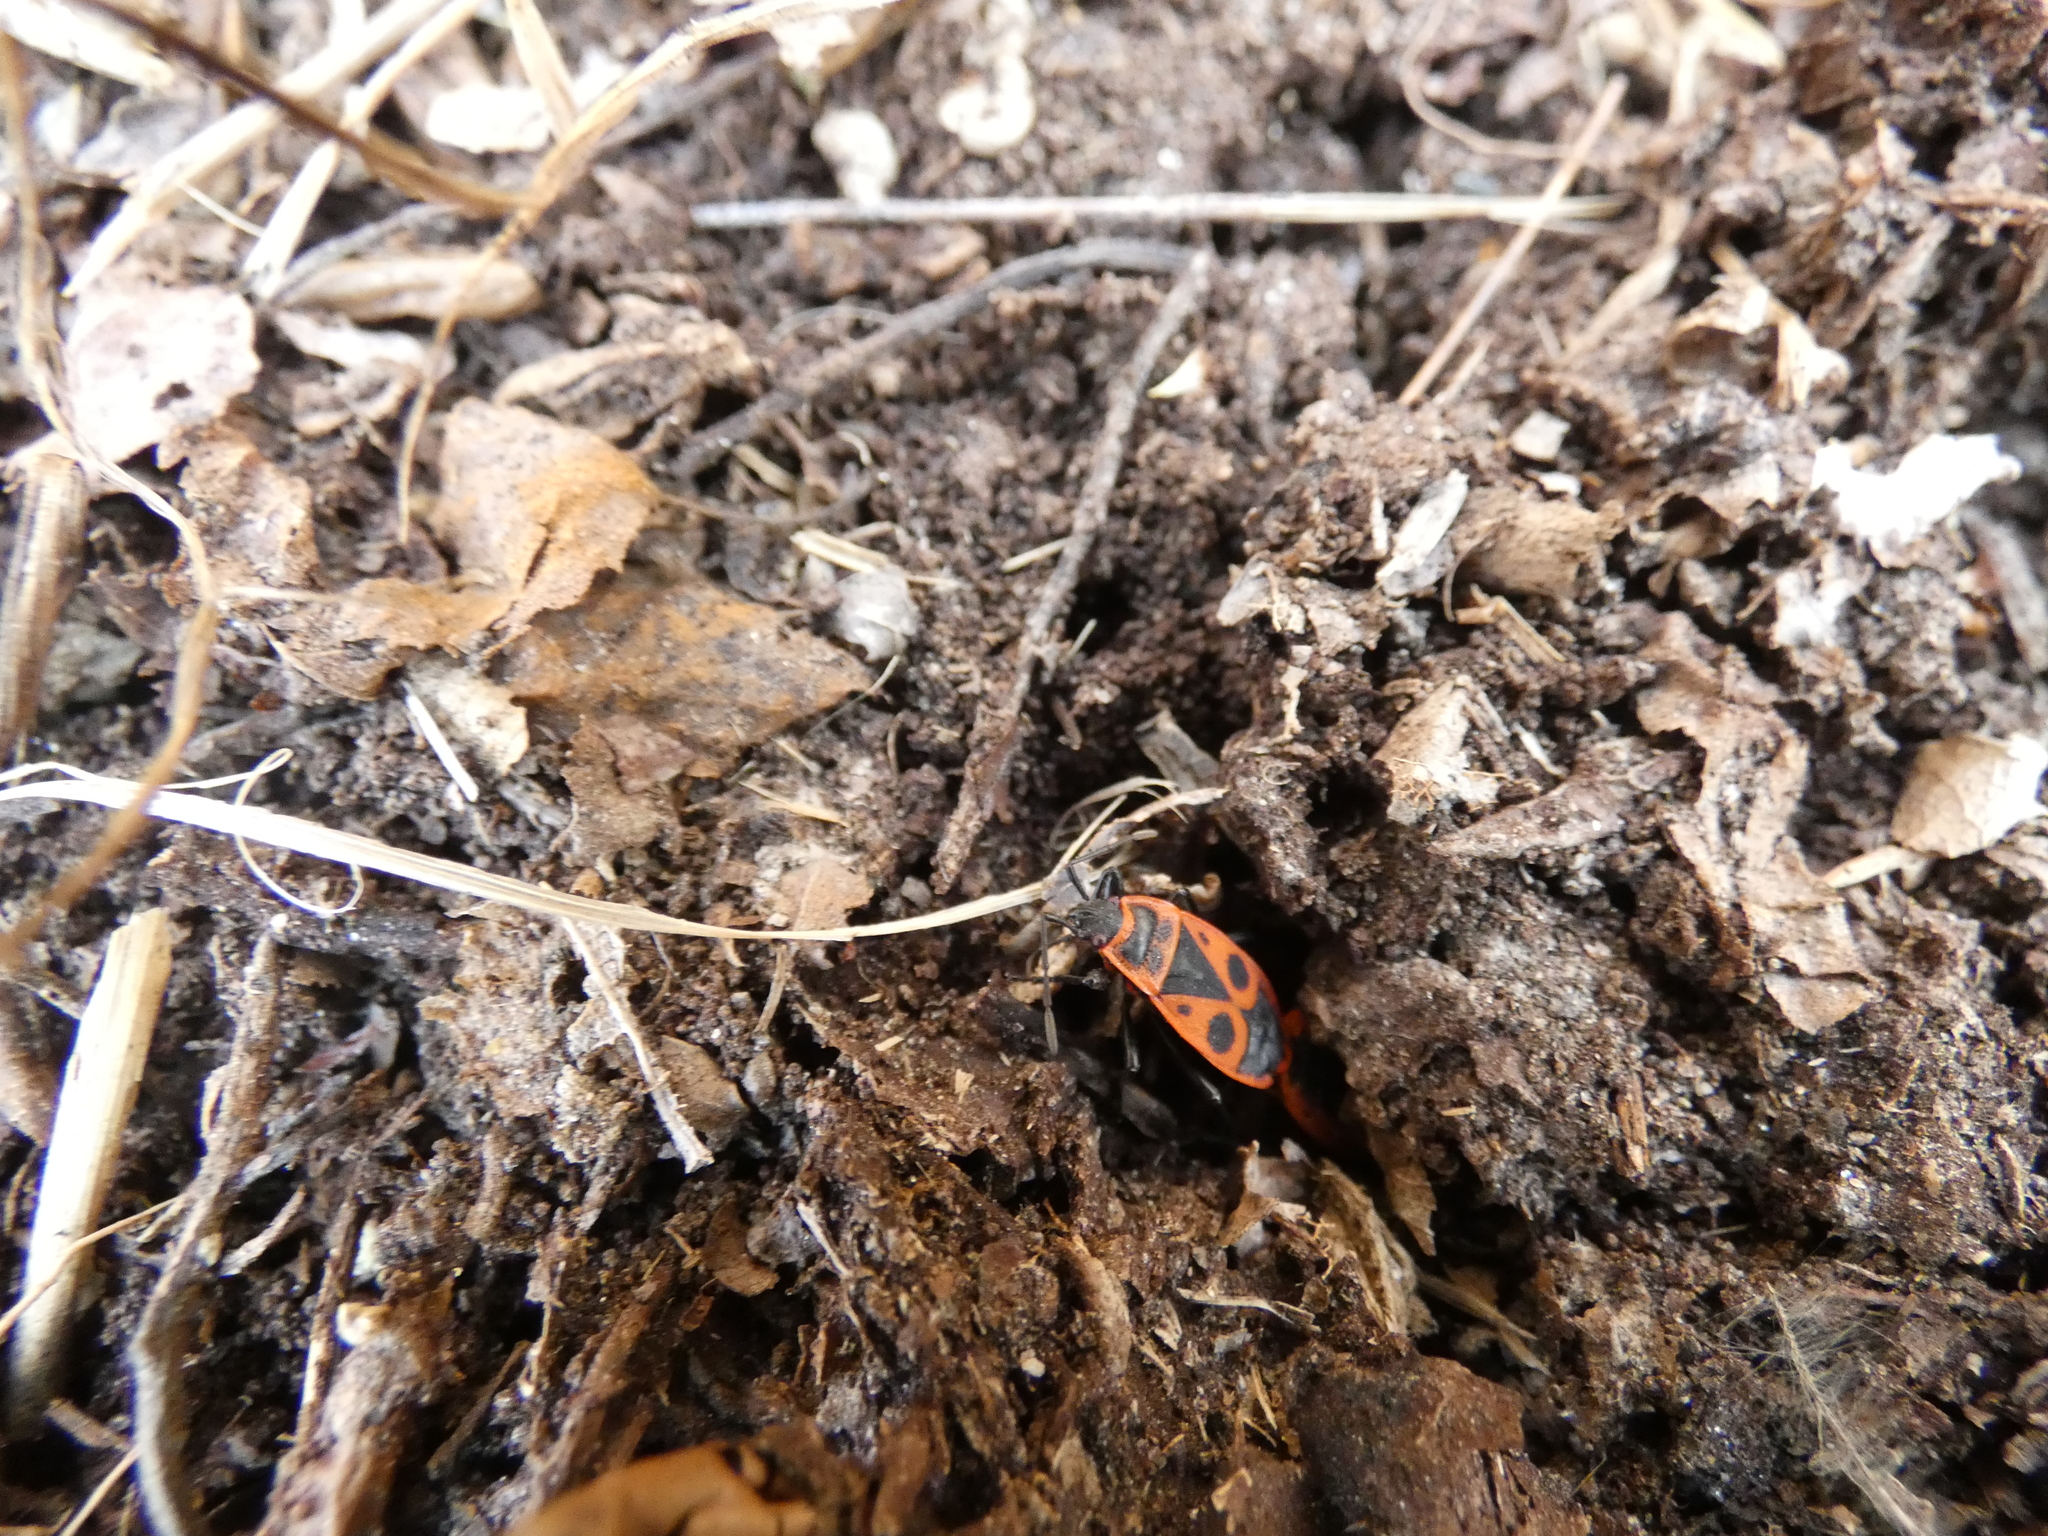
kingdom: Animalia
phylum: Arthropoda
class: Insecta
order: Hemiptera
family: Pyrrhocoridae
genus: Pyrrhocoris
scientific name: Pyrrhocoris apterus
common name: Firebug
